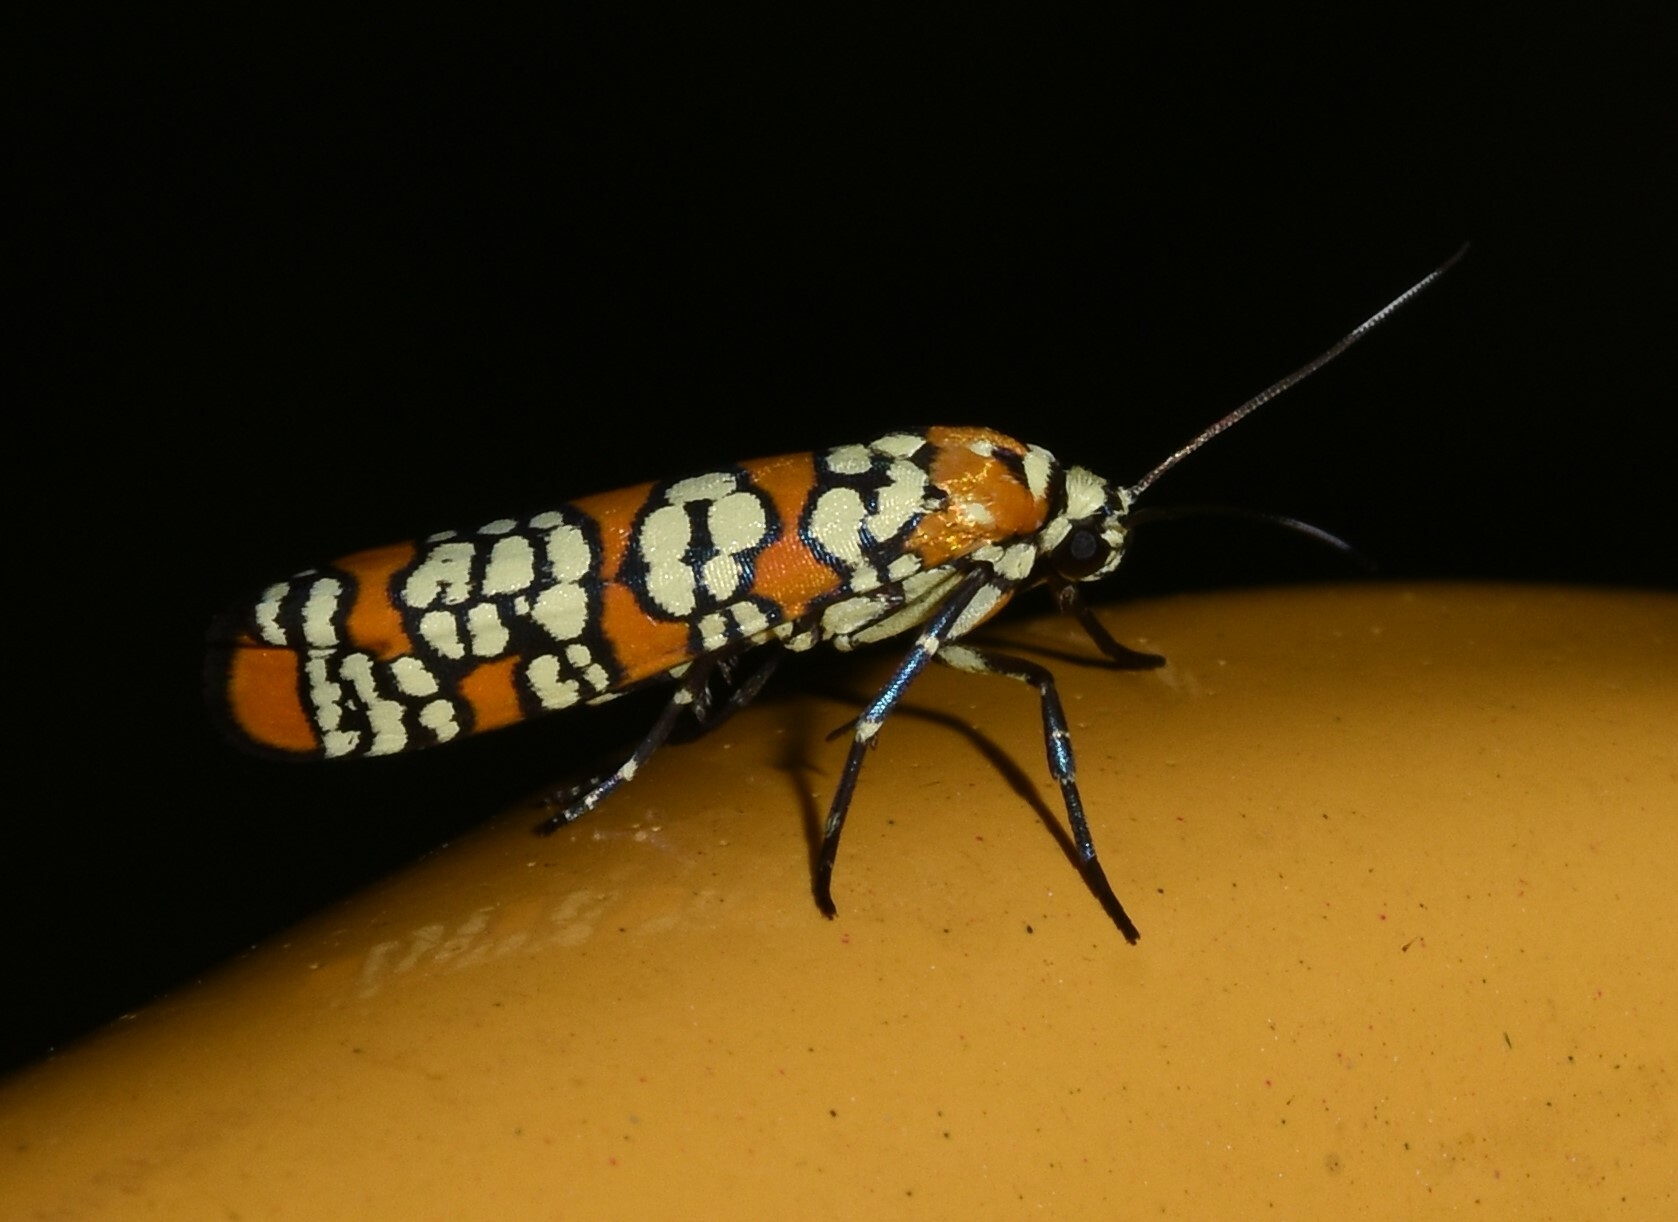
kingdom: Animalia
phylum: Arthropoda
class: Insecta
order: Lepidoptera
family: Attevidae
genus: Atteva
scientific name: Atteva punctella
